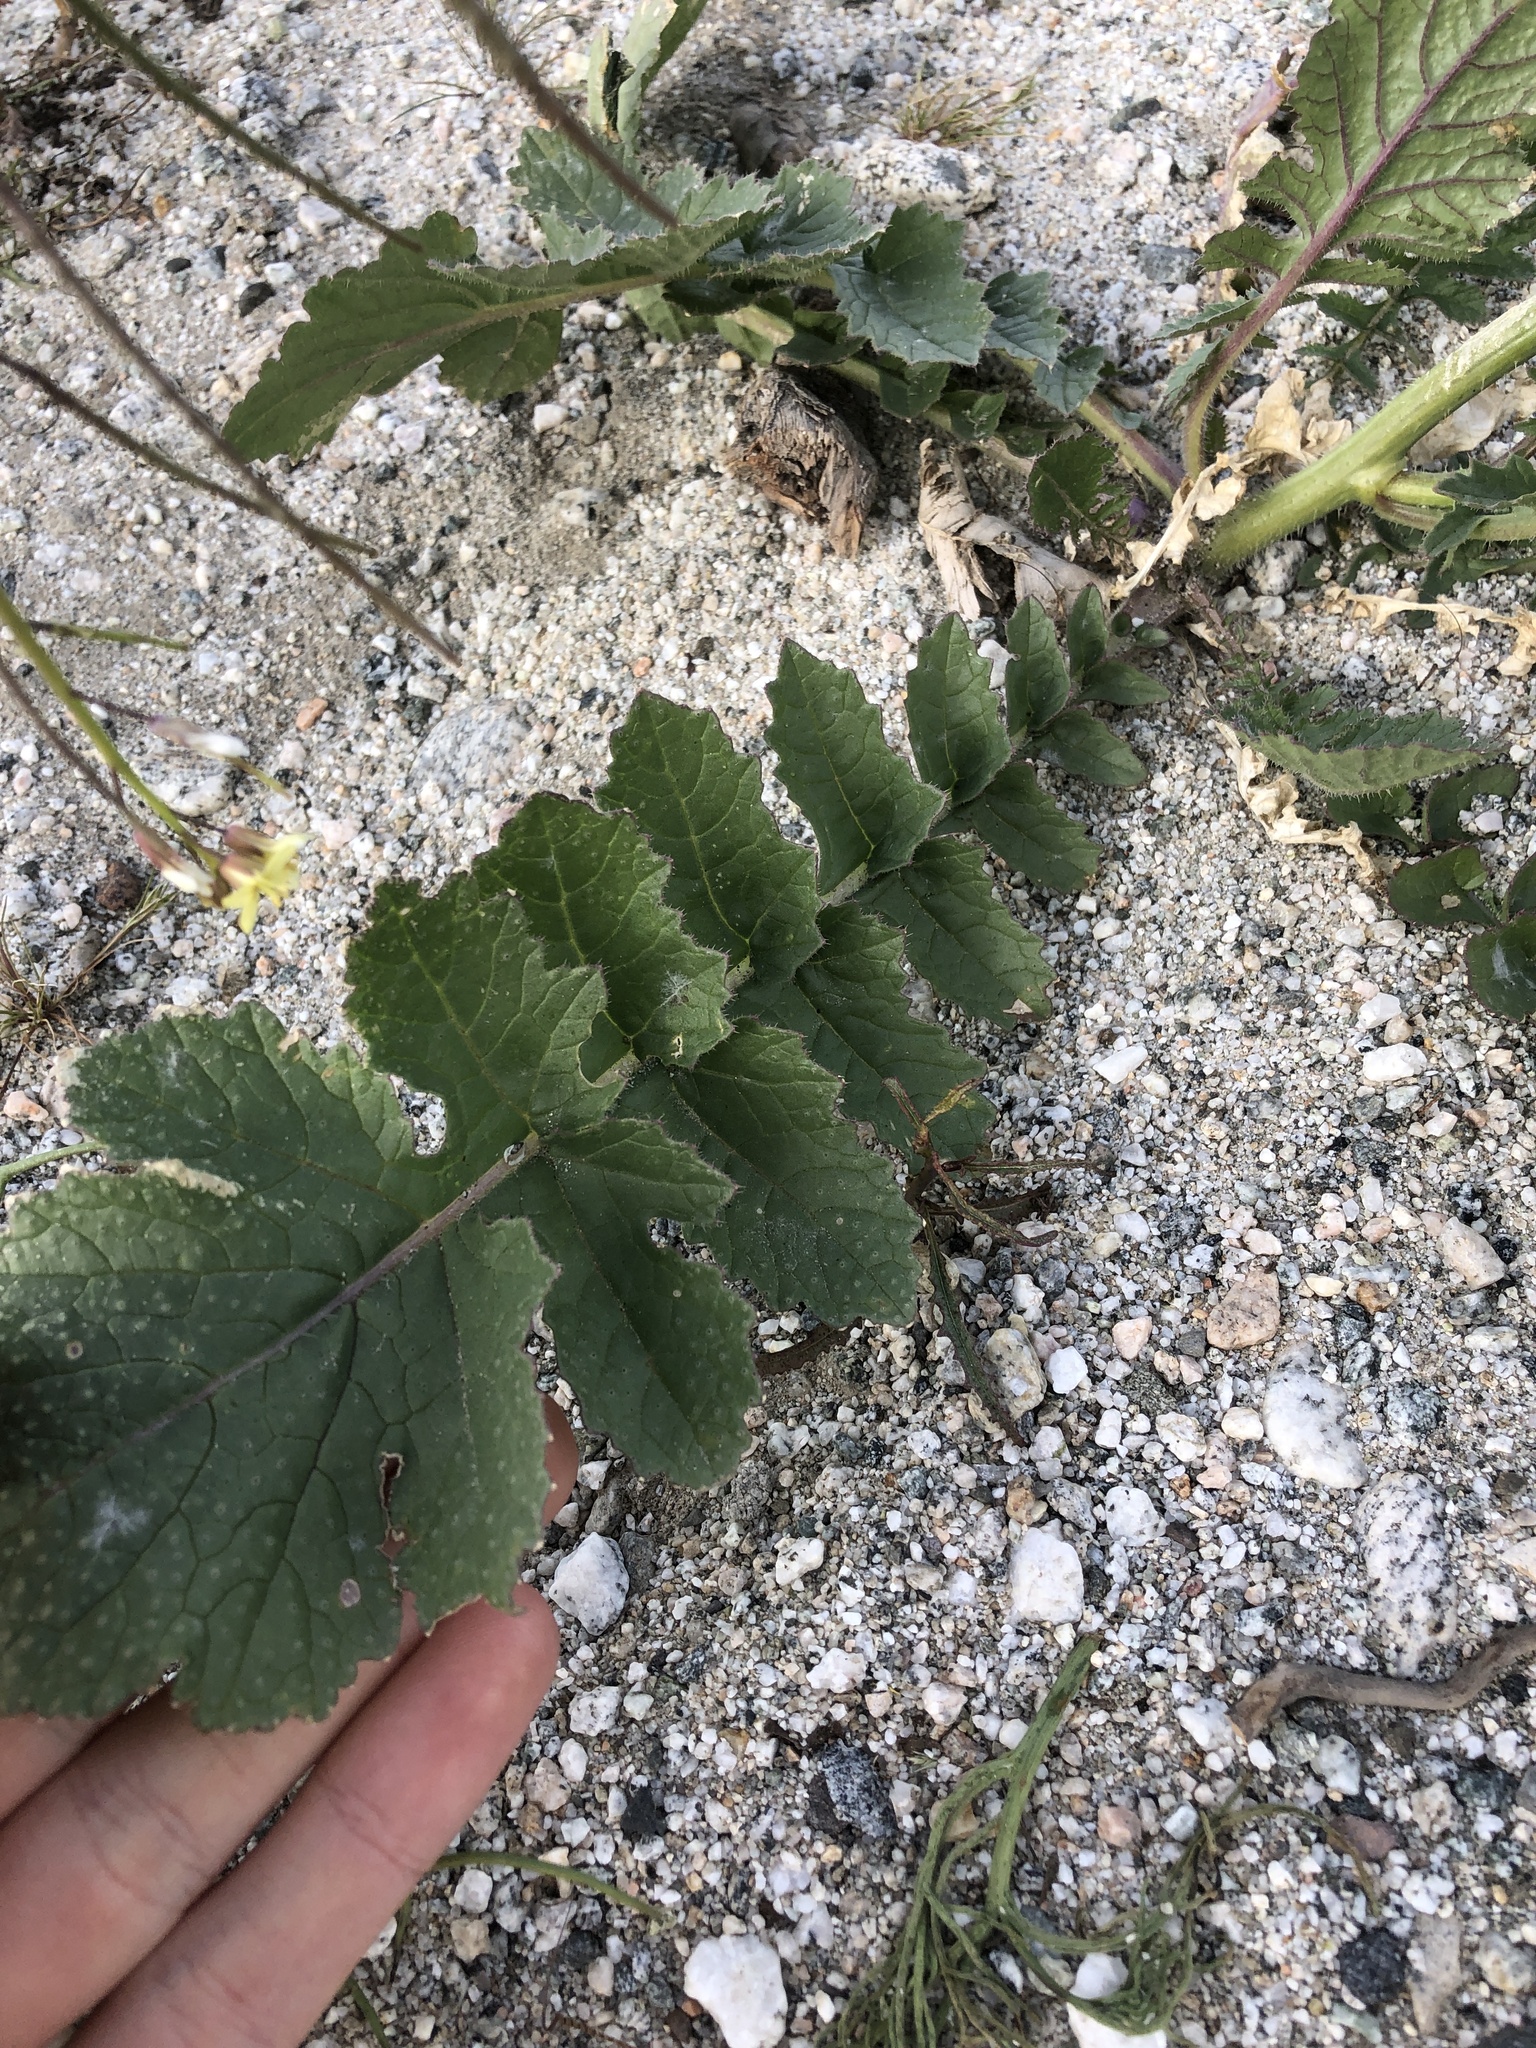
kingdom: Plantae
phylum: Tracheophyta
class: Magnoliopsida
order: Brassicales
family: Brassicaceae
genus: Brassica
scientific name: Brassica tournefortii
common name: Pale cabbage
